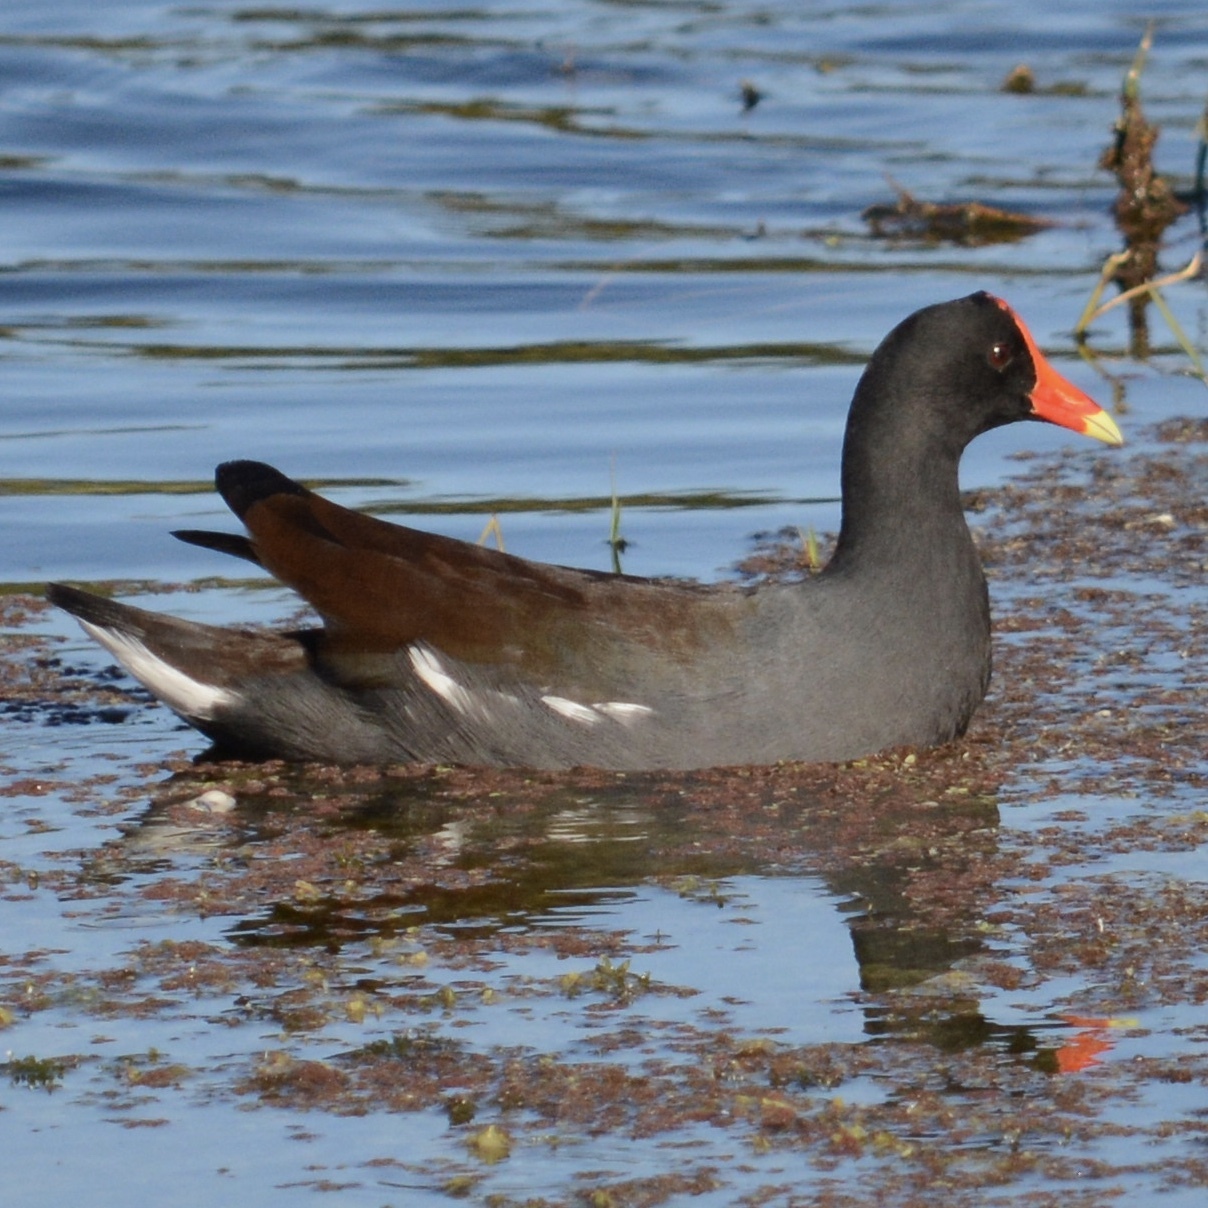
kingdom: Animalia
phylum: Chordata
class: Aves
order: Gruiformes
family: Rallidae
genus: Gallinula
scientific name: Gallinula chloropus
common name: Common moorhen
